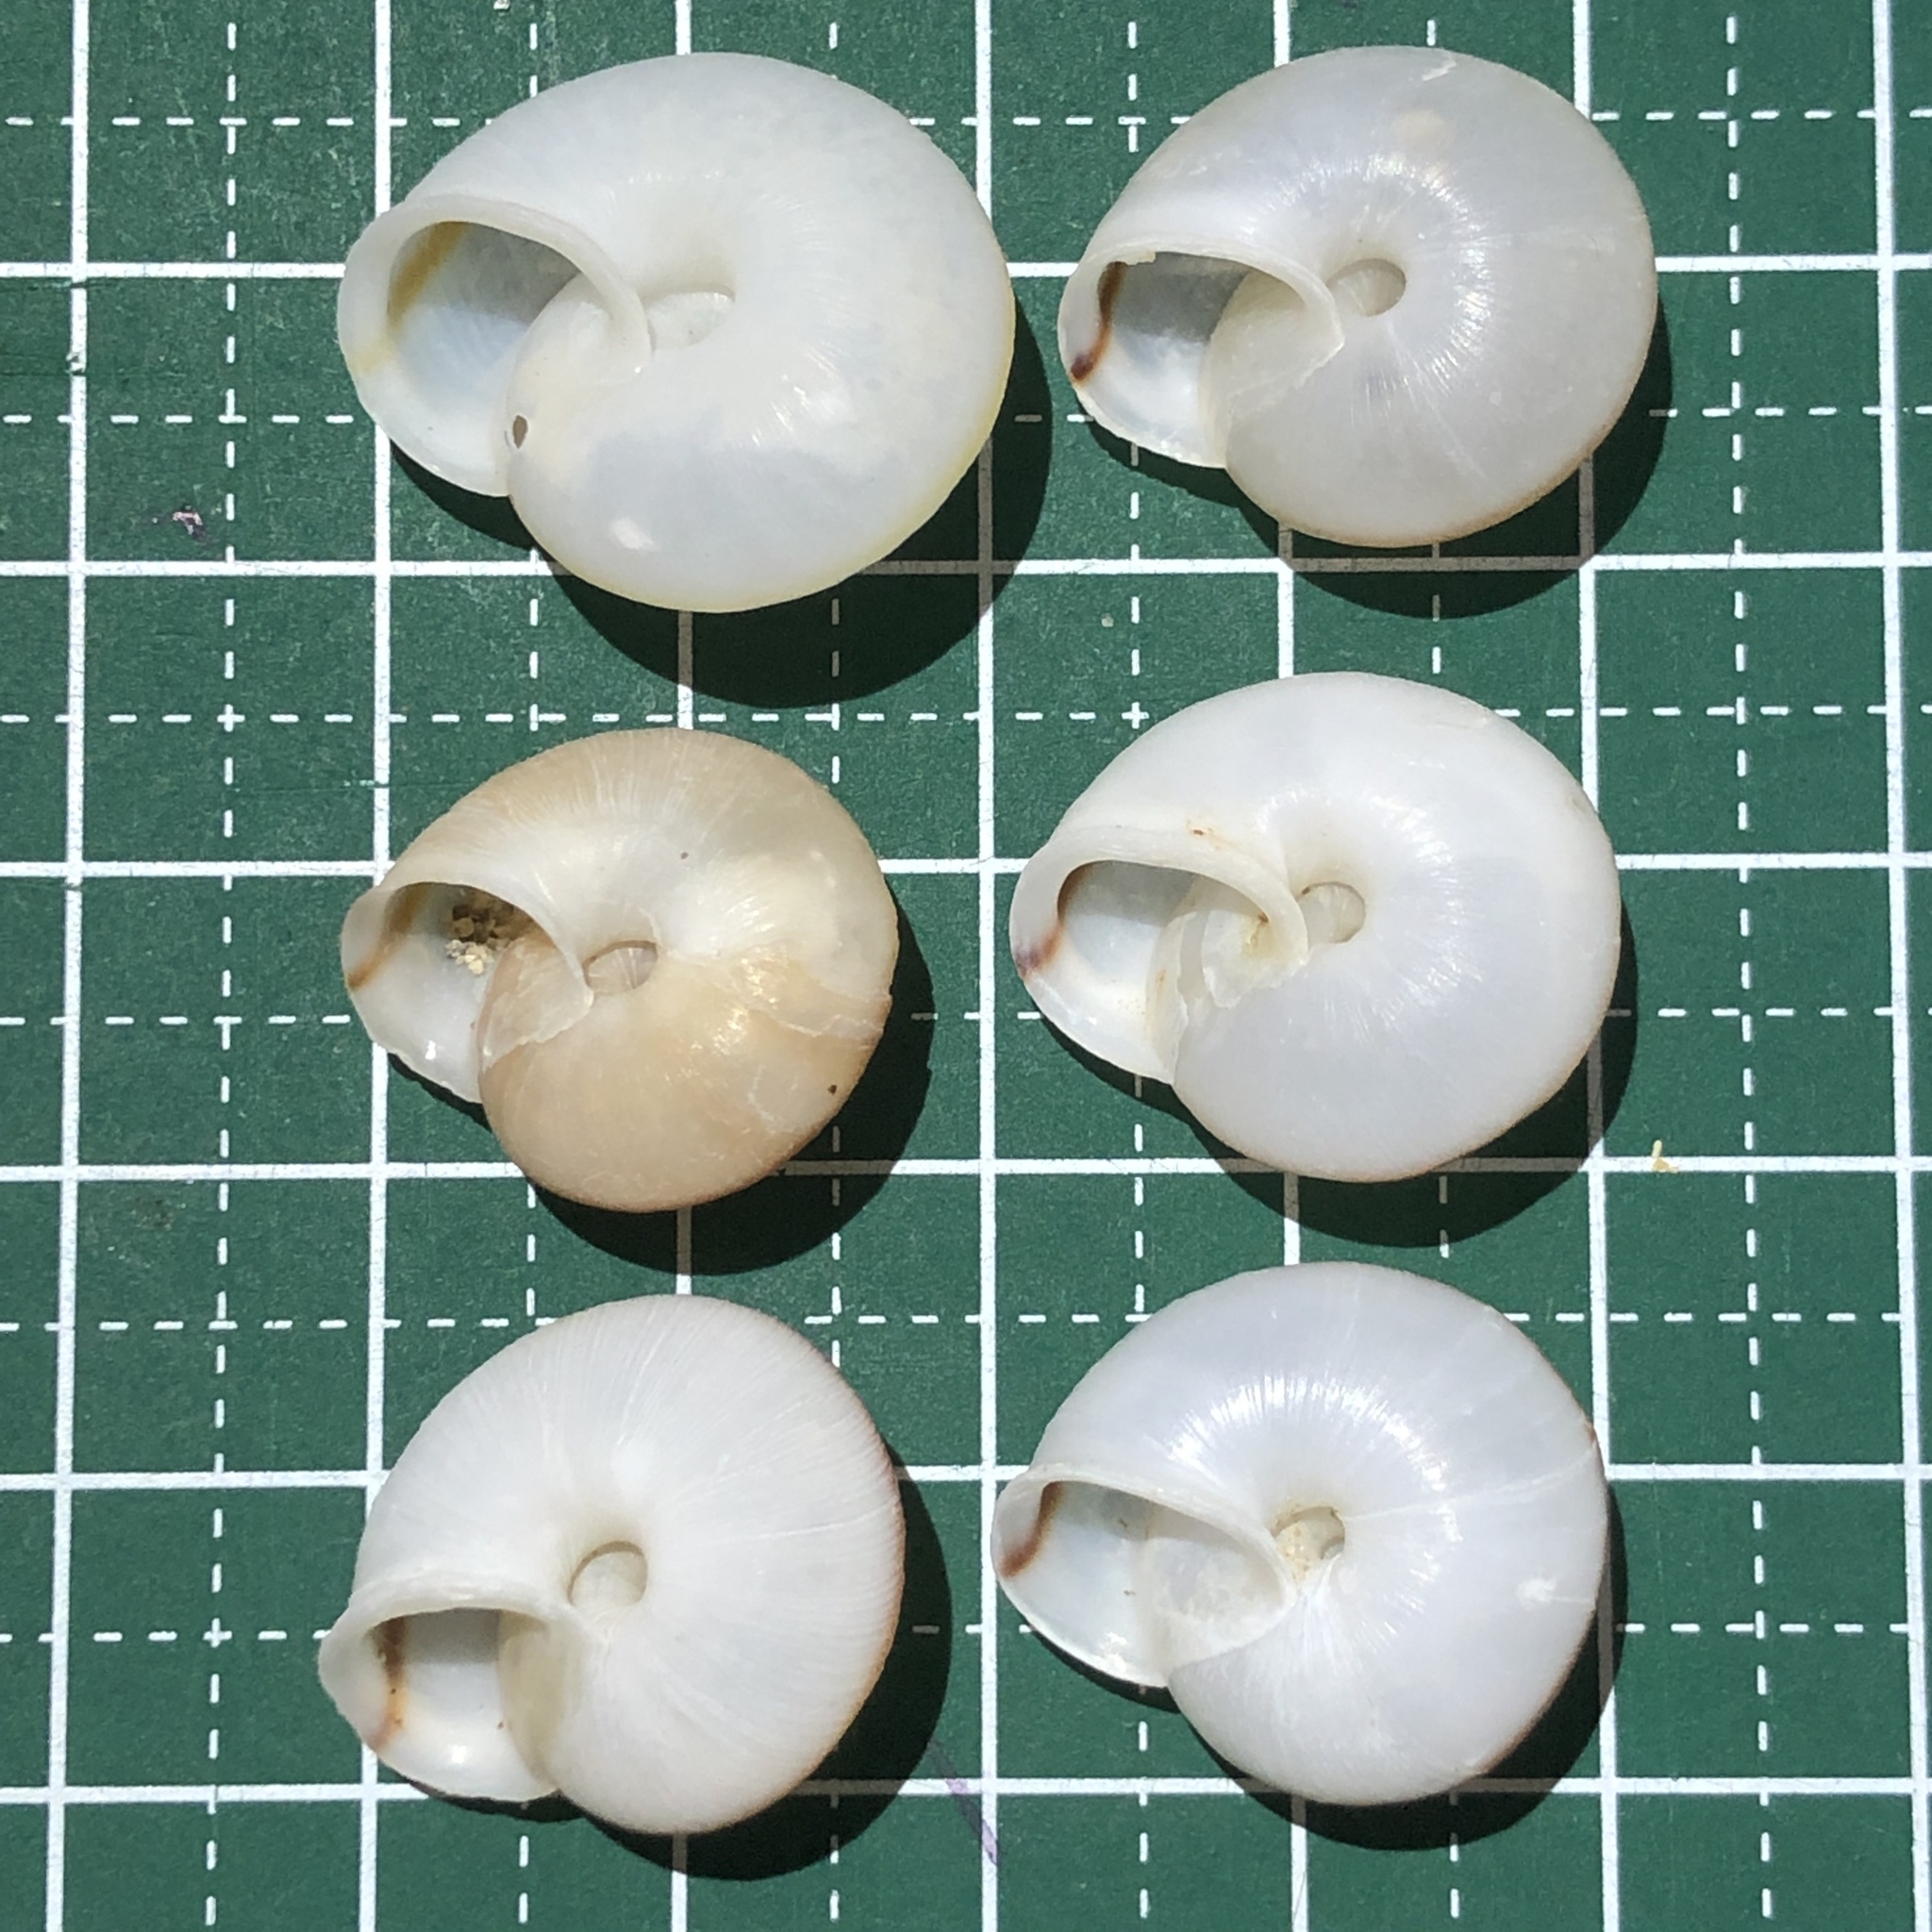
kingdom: Animalia
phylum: Mollusca
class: Gastropoda
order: Stylommatophora
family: Camaenidae
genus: Bradybaena
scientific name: Bradybaena circulus
